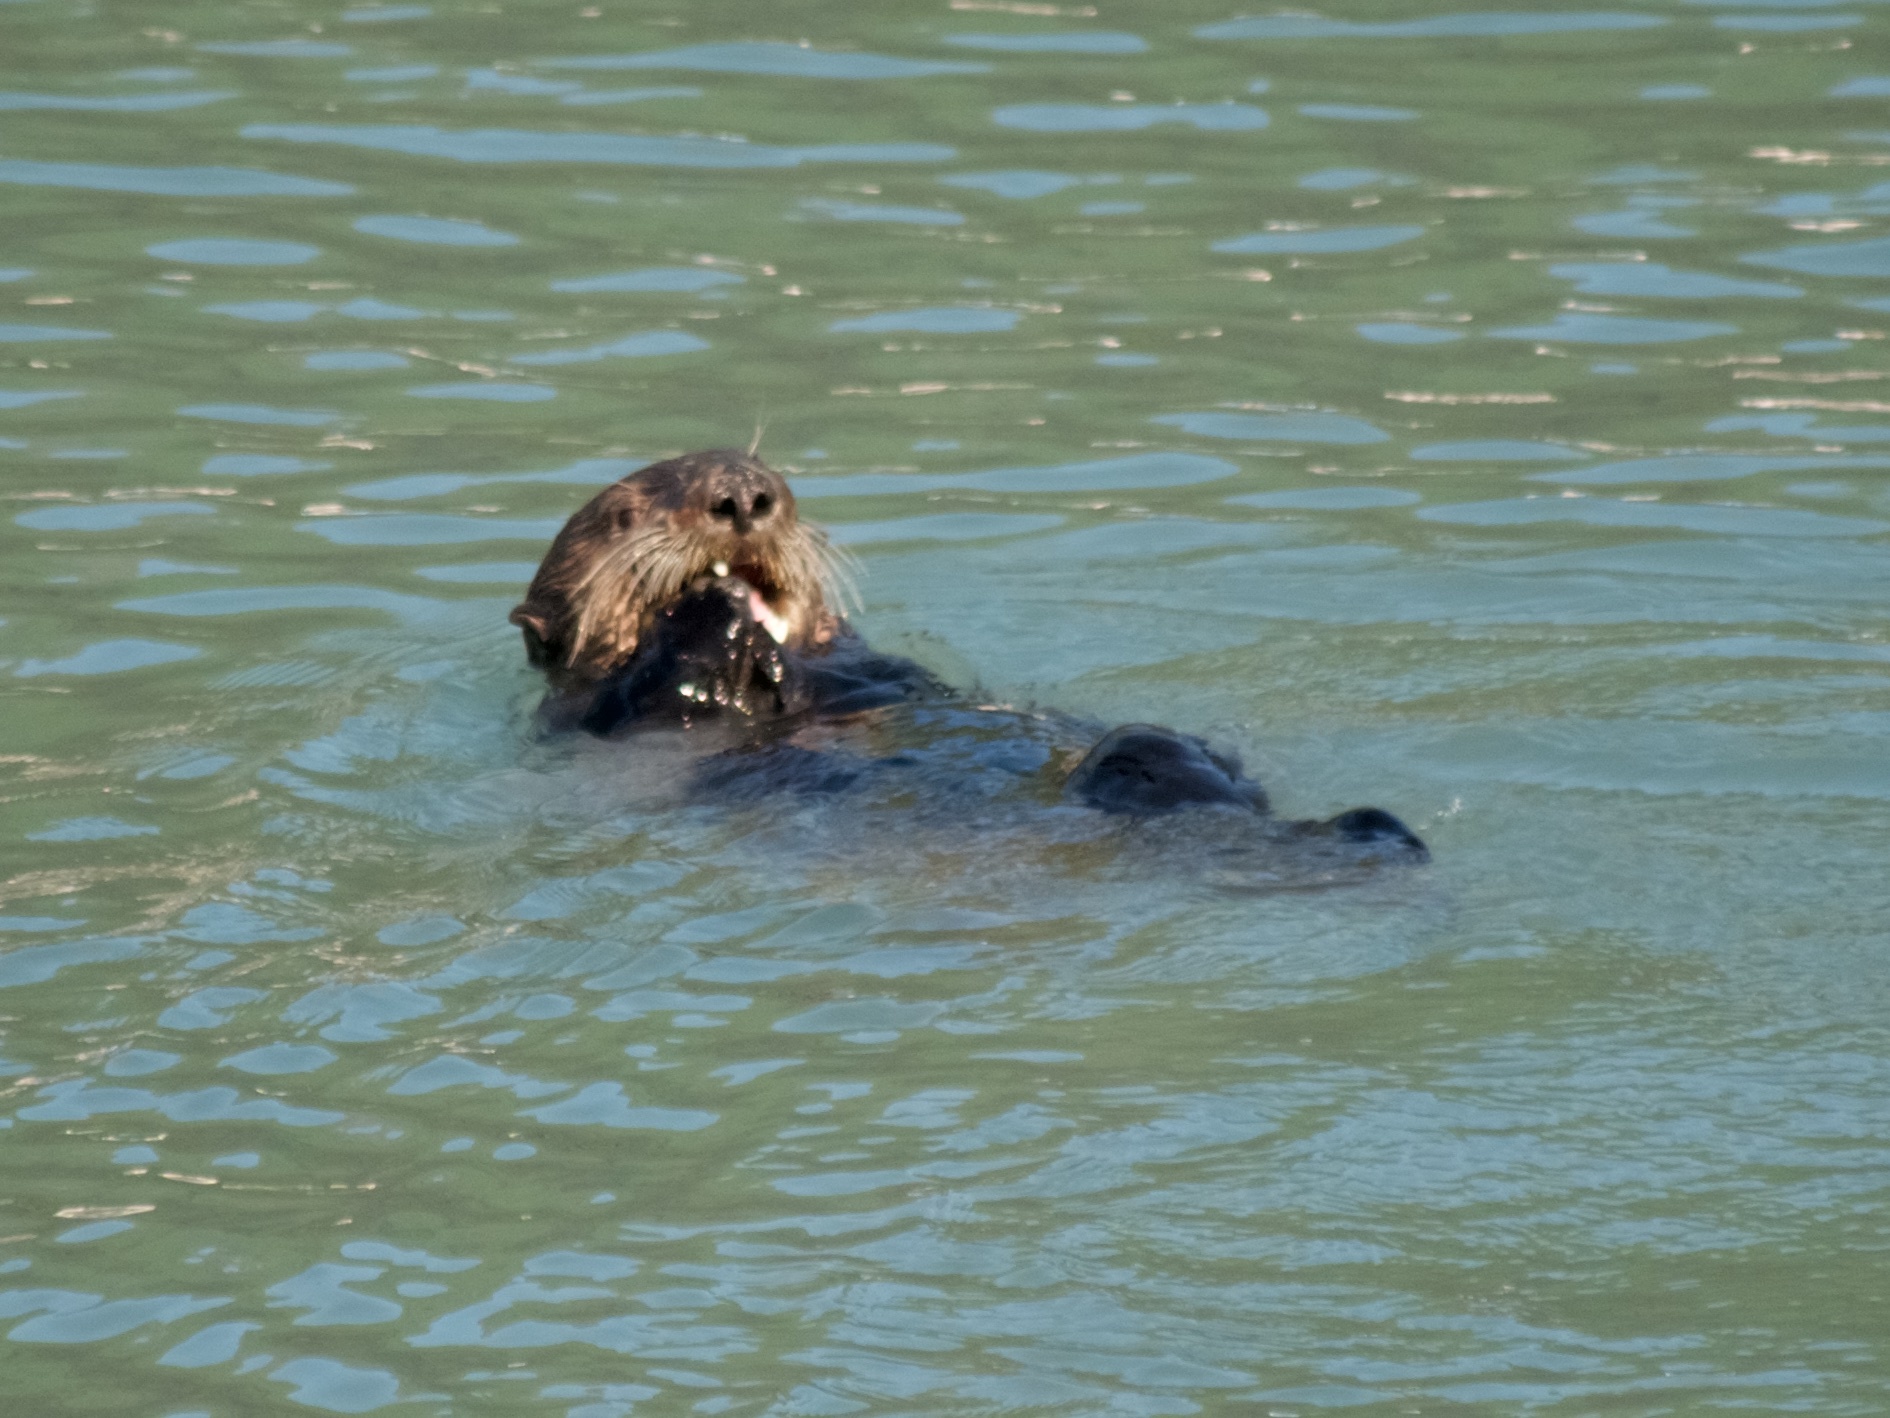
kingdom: Animalia
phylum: Chordata
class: Mammalia
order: Carnivora
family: Mustelidae
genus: Enhydra
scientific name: Enhydra lutris
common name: Sea otter
